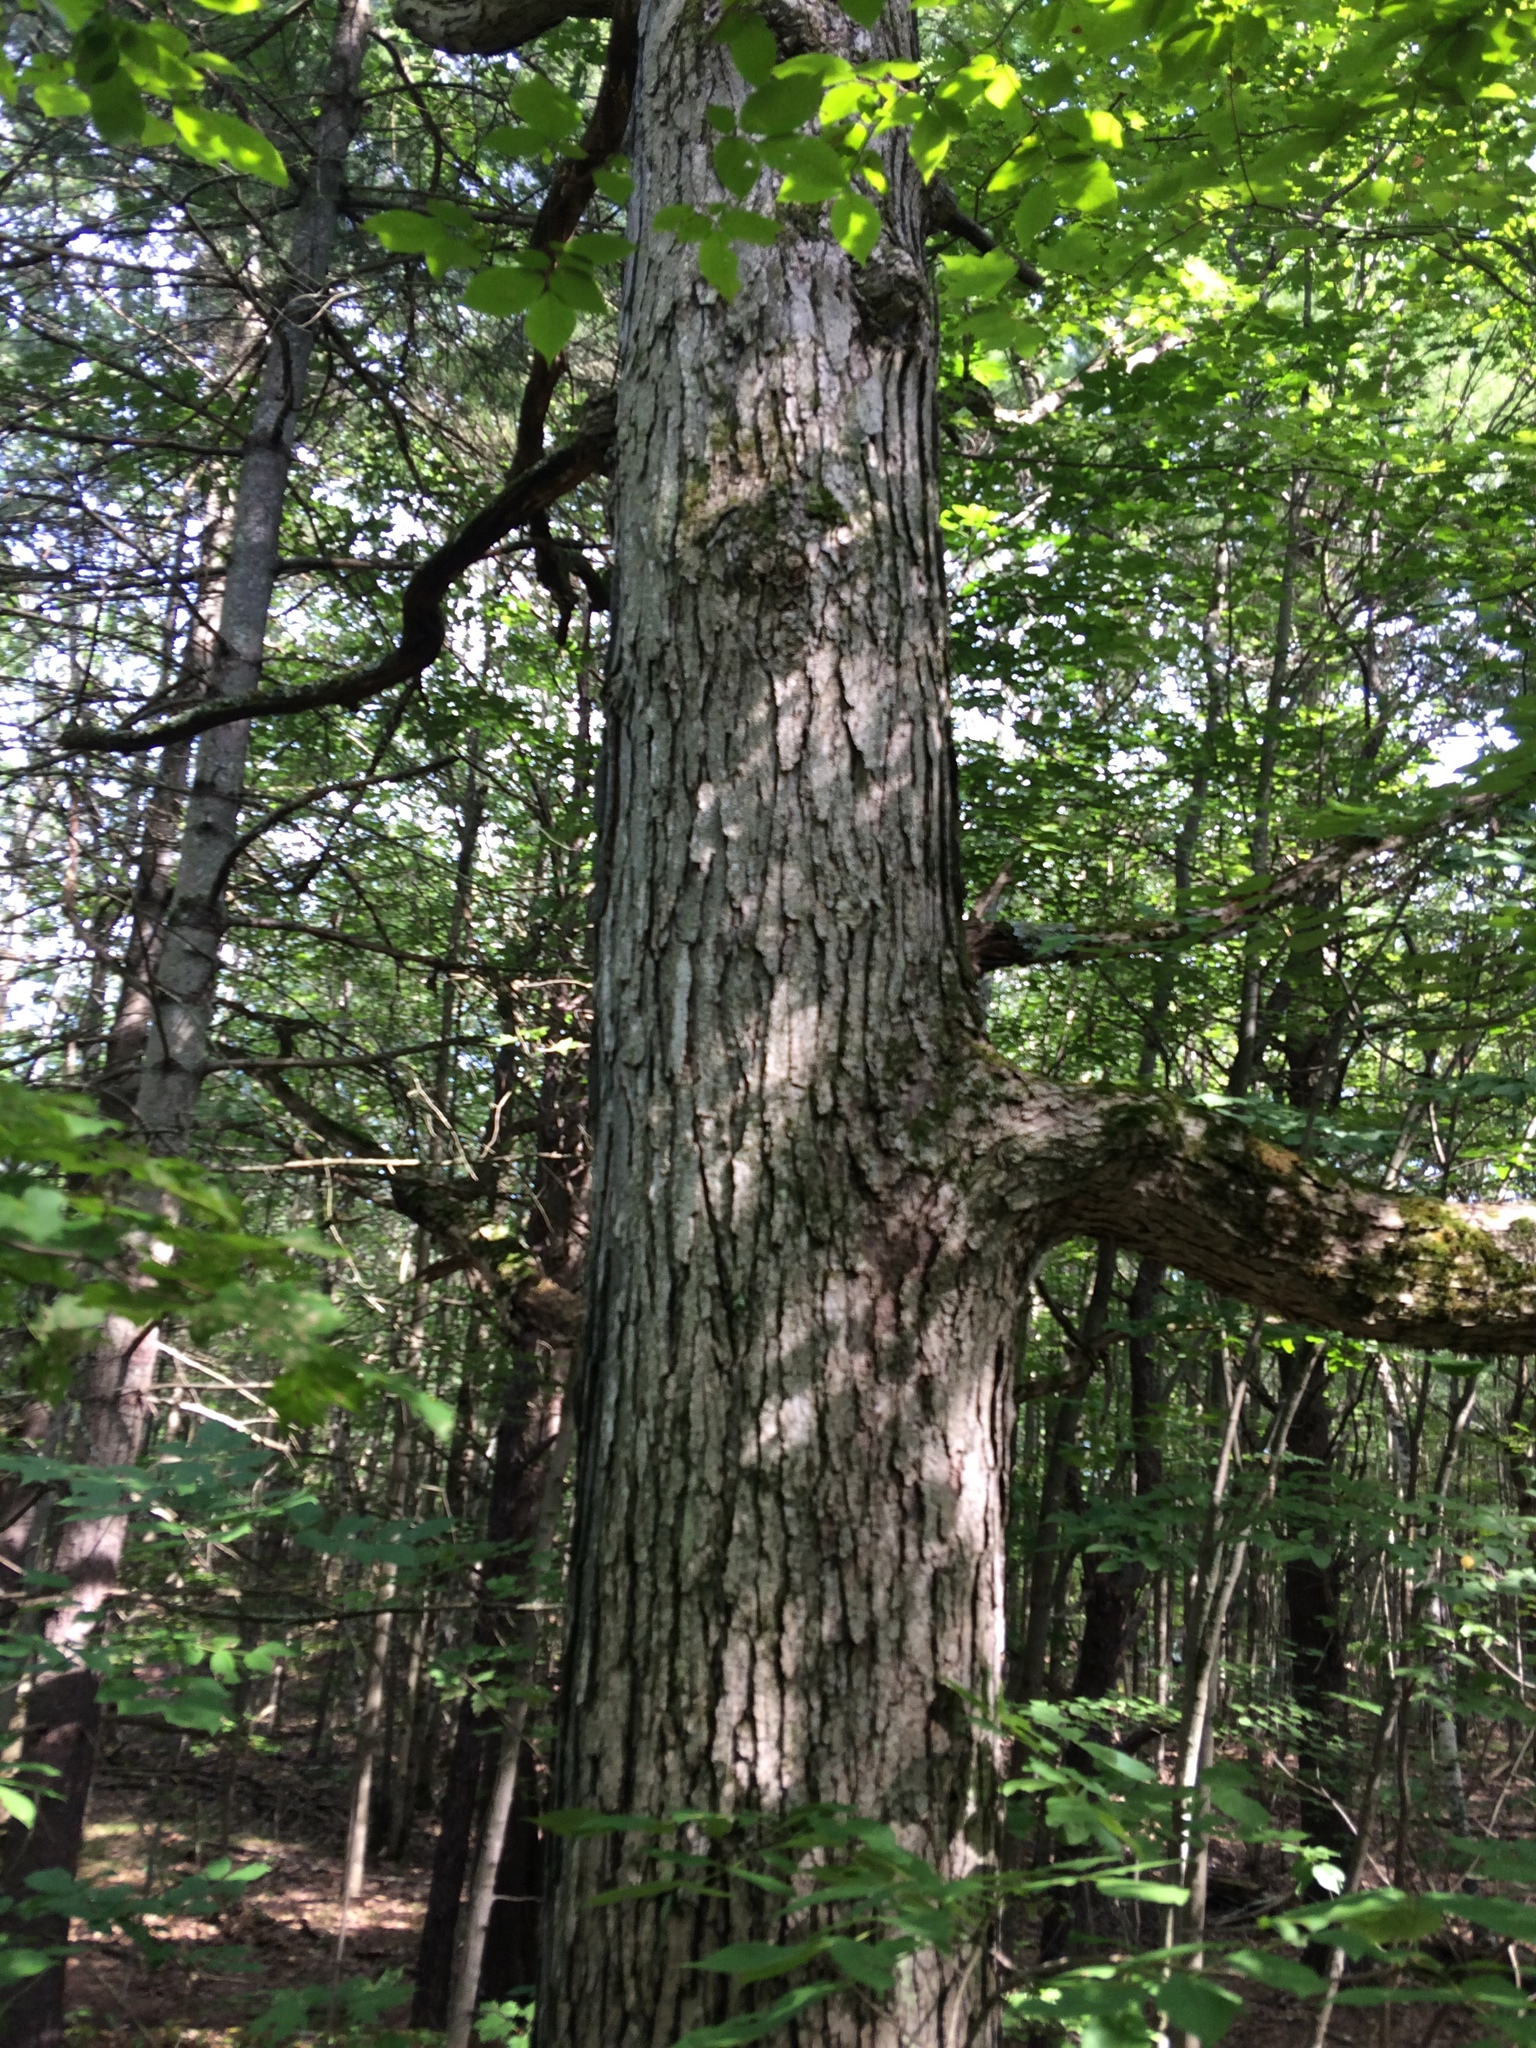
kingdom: Plantae
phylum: Tracheophyta
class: Magnoliopsida
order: Fagales
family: Fagaceae
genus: Quercus
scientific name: Quercus alba
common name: White oak
